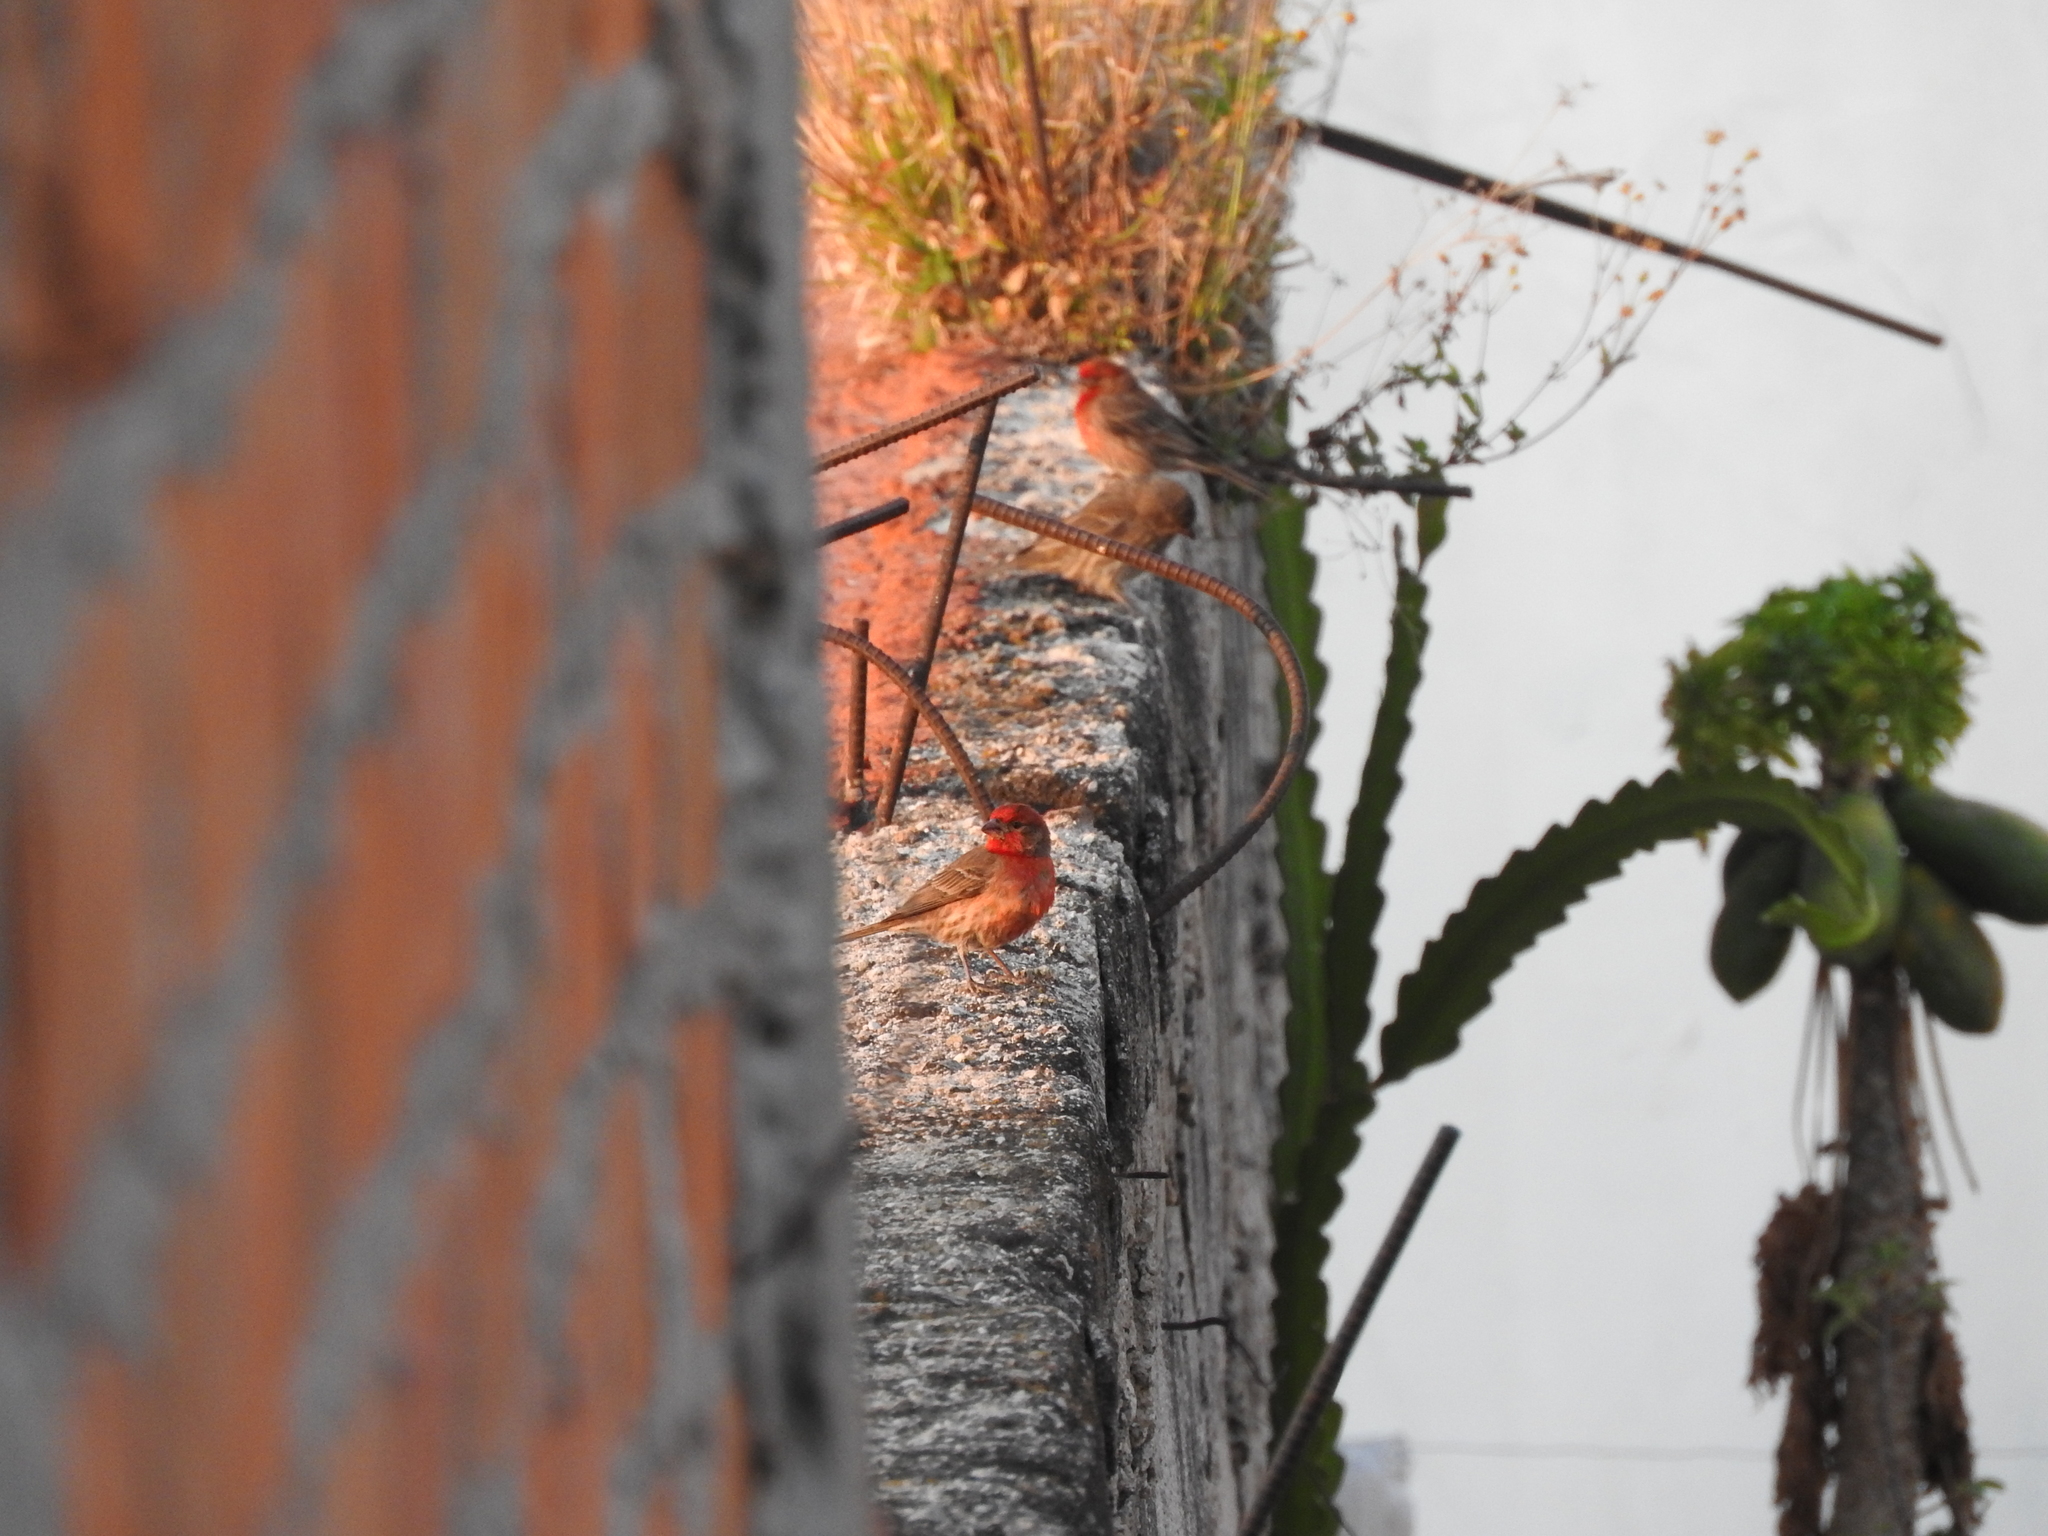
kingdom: Animalia
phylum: Chordata
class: Aves
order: Passeriformes
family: Fringillidae
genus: Haemorhous
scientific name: Haemorhous mexicanus
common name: House finch
